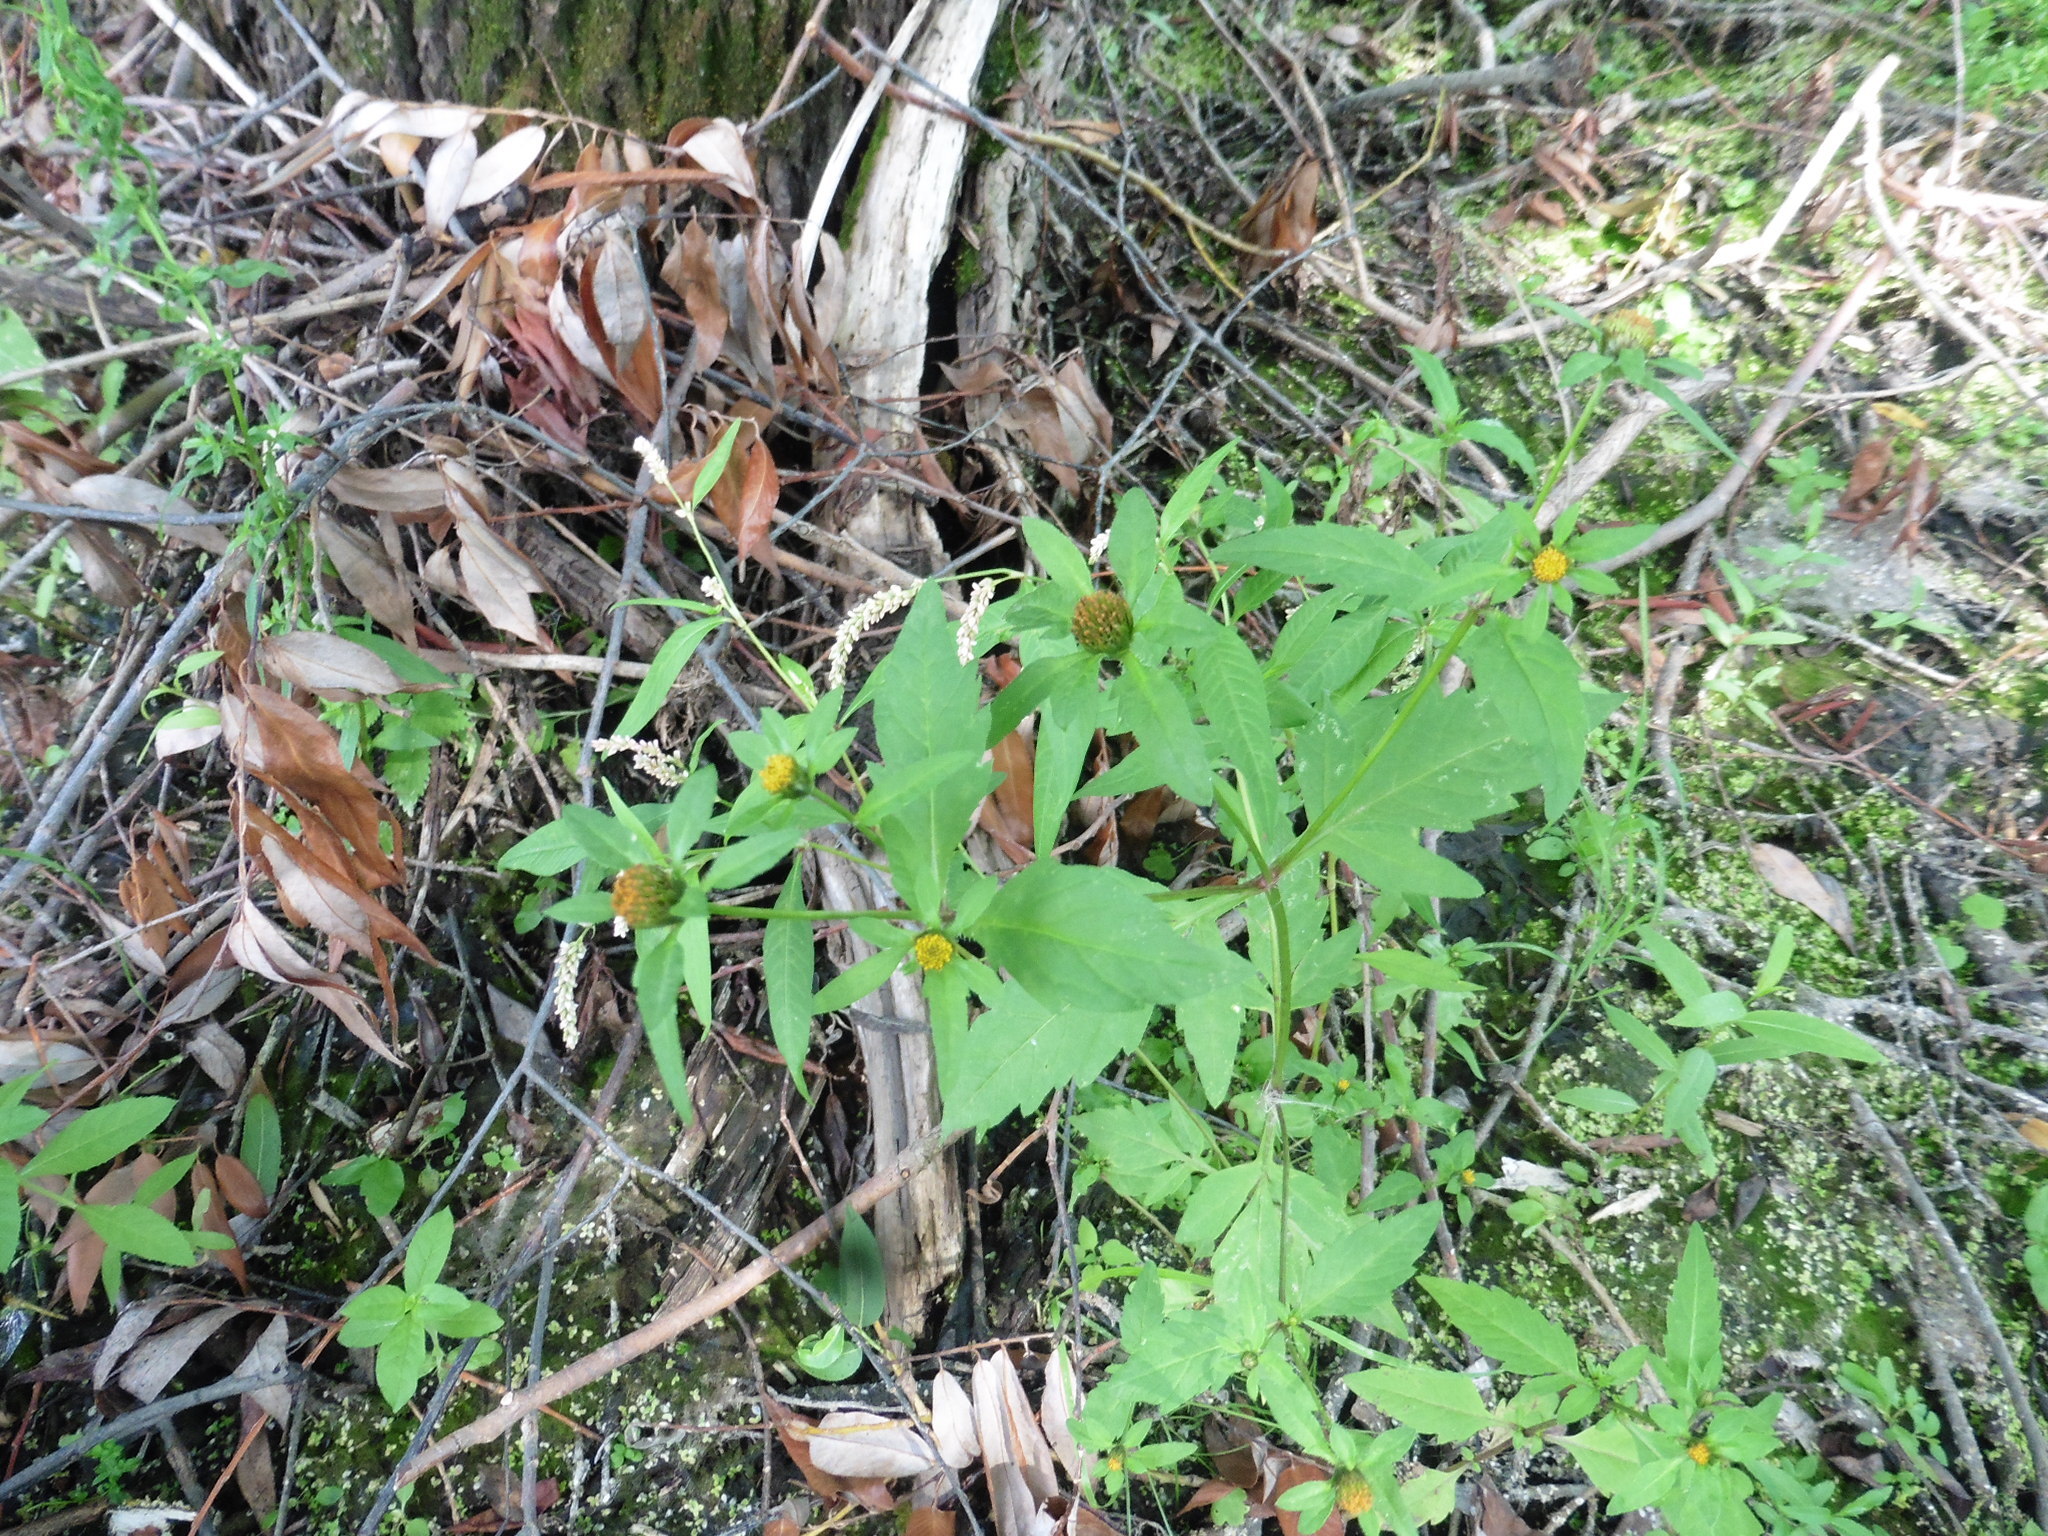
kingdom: Plantae
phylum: Tracheophyta
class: Magnoliopsida
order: Asterales
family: Asteraceae
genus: Bidens
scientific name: Bidens tripartita
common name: Trifid bur-marigold
